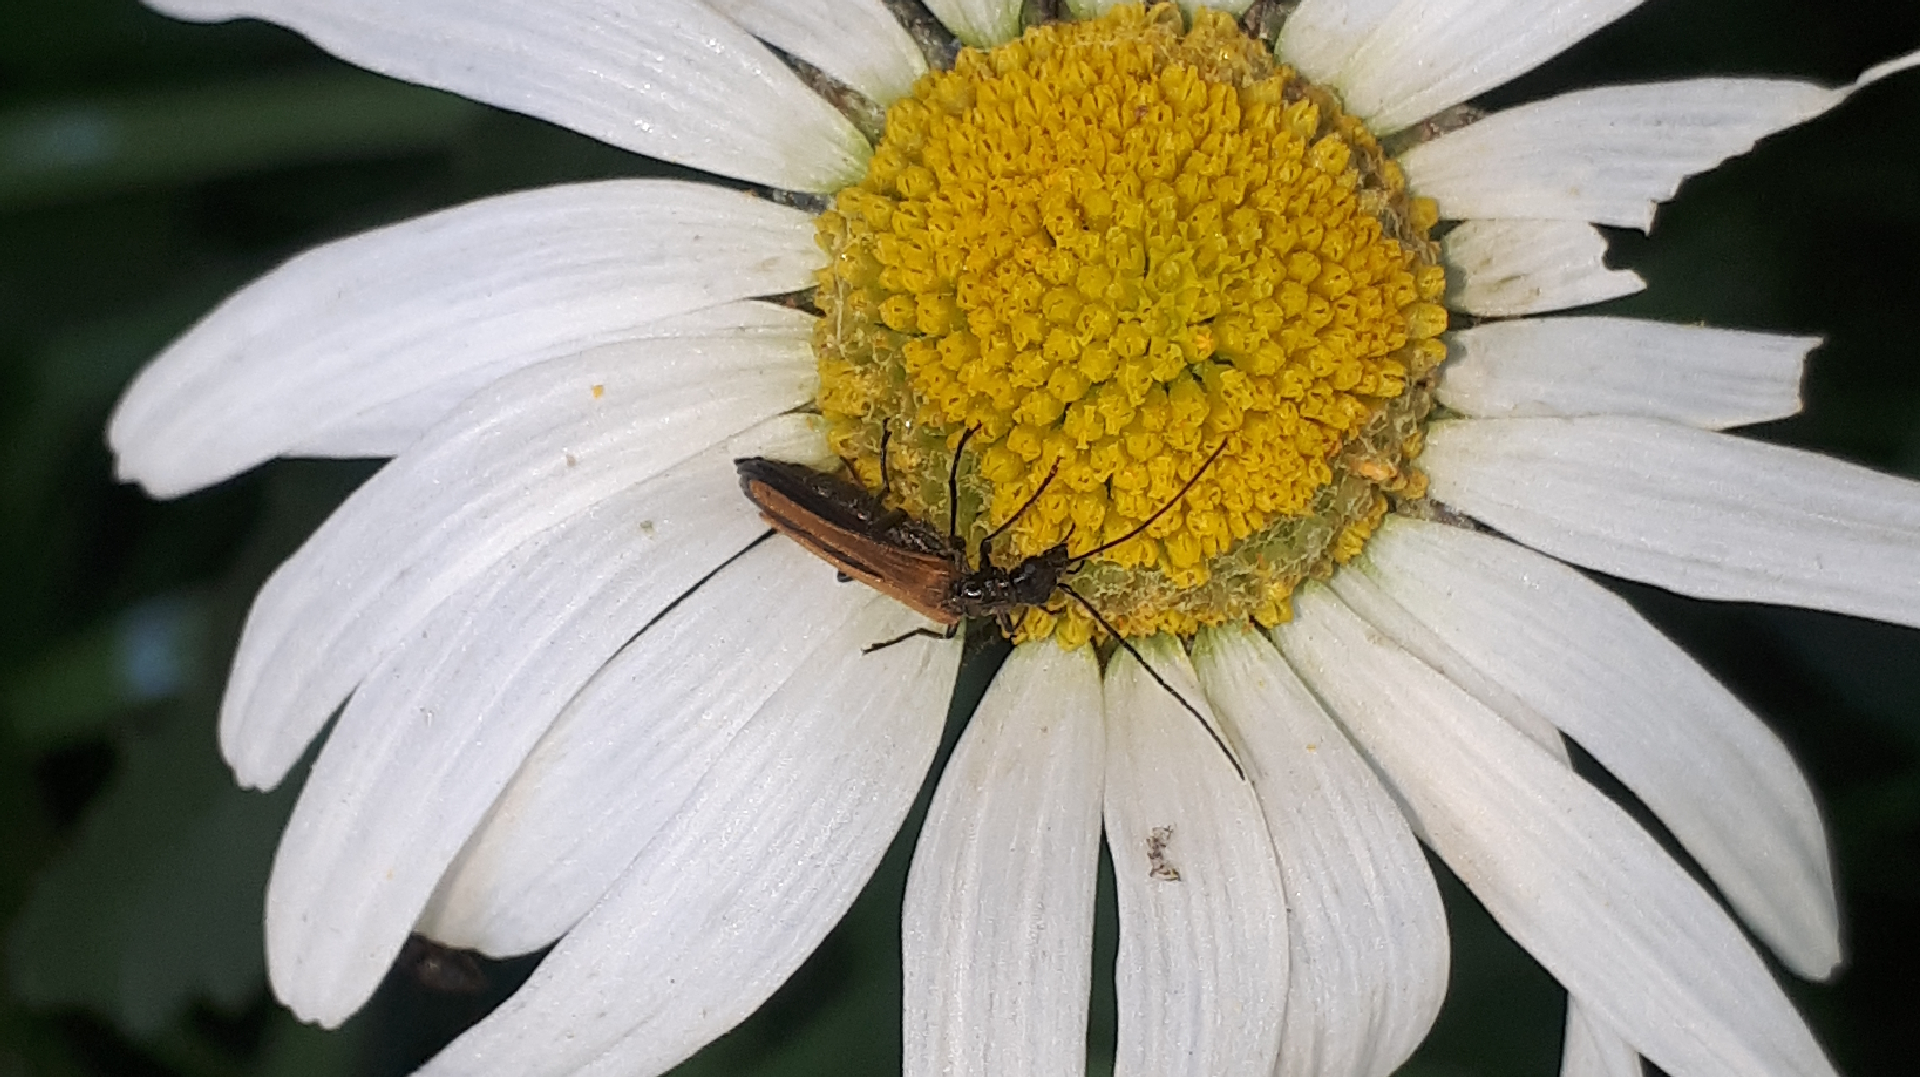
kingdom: Animalia
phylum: Arthropoda
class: Insecta
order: Coleoptera
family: Oedemeridae
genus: Oedemera
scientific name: Oedemera femorata
